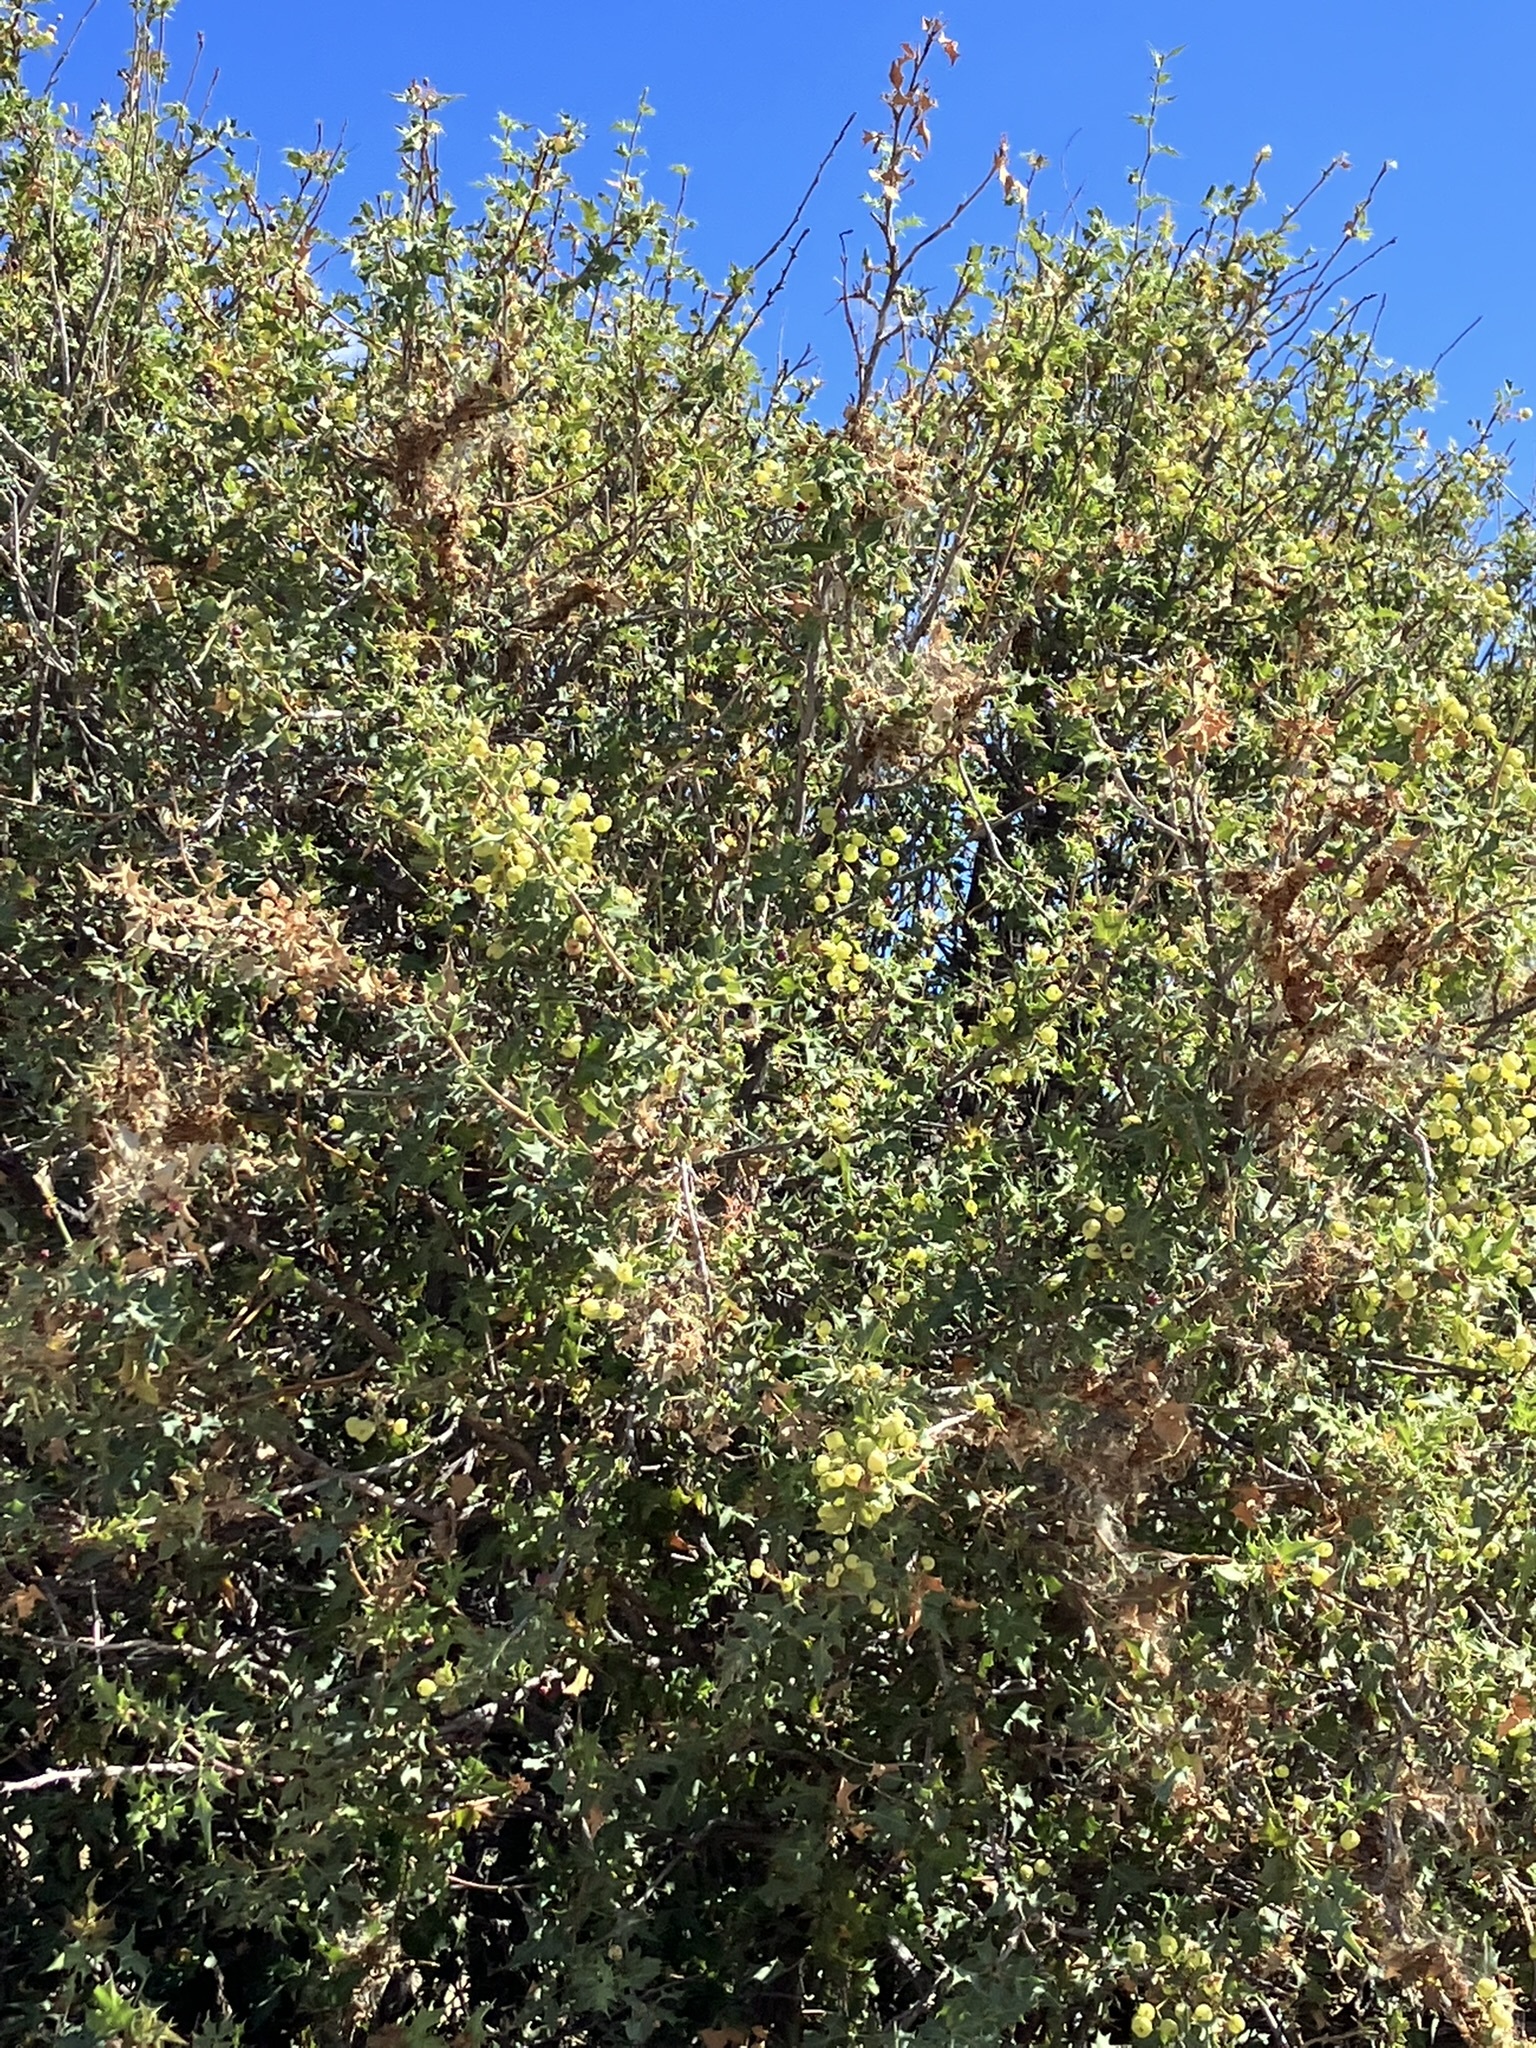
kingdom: Plantae
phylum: Tracheophyta
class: Magnoliopsida
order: Ranunculales
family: Berberidaceae
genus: Alloberberis
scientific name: Alloberberis fremontii
